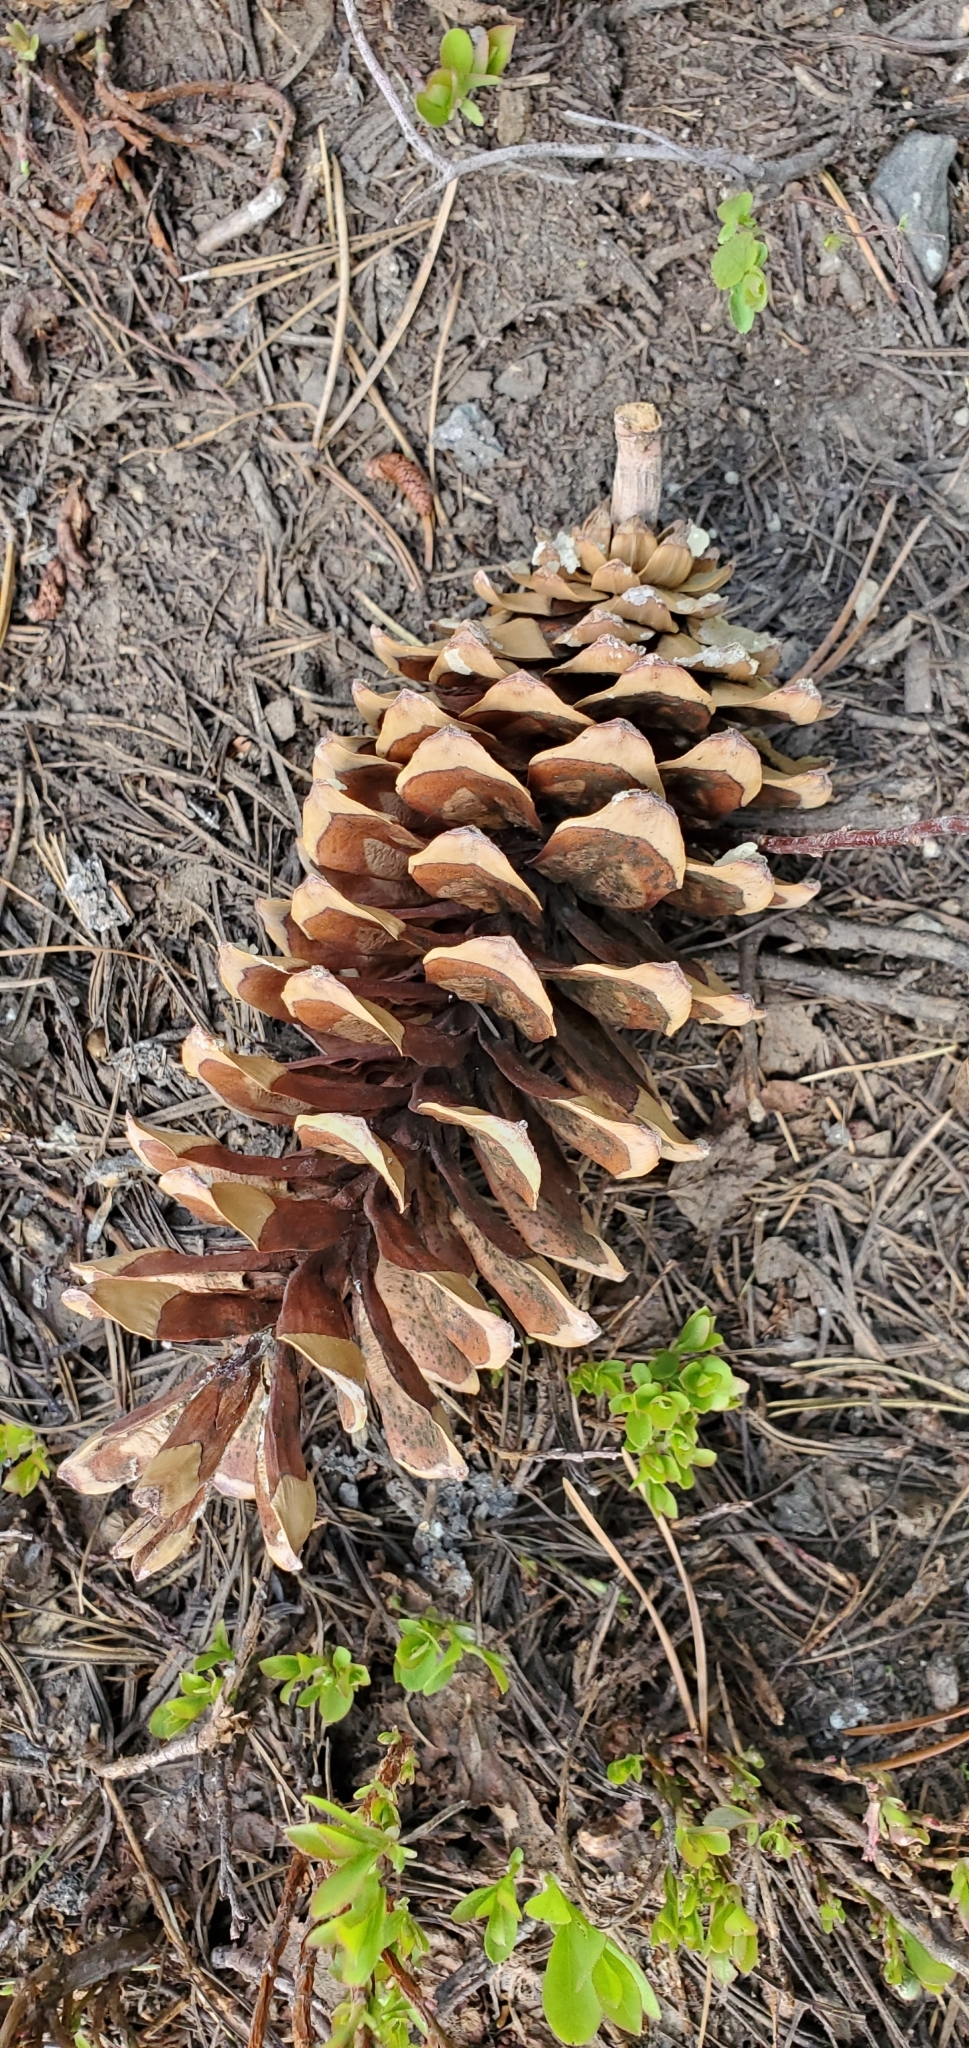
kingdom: Plantae
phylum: Tracheophyta
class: Pinopsida
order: Pinales
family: Pinaceae
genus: Pinus
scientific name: Pinus monticola
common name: Western white pine
